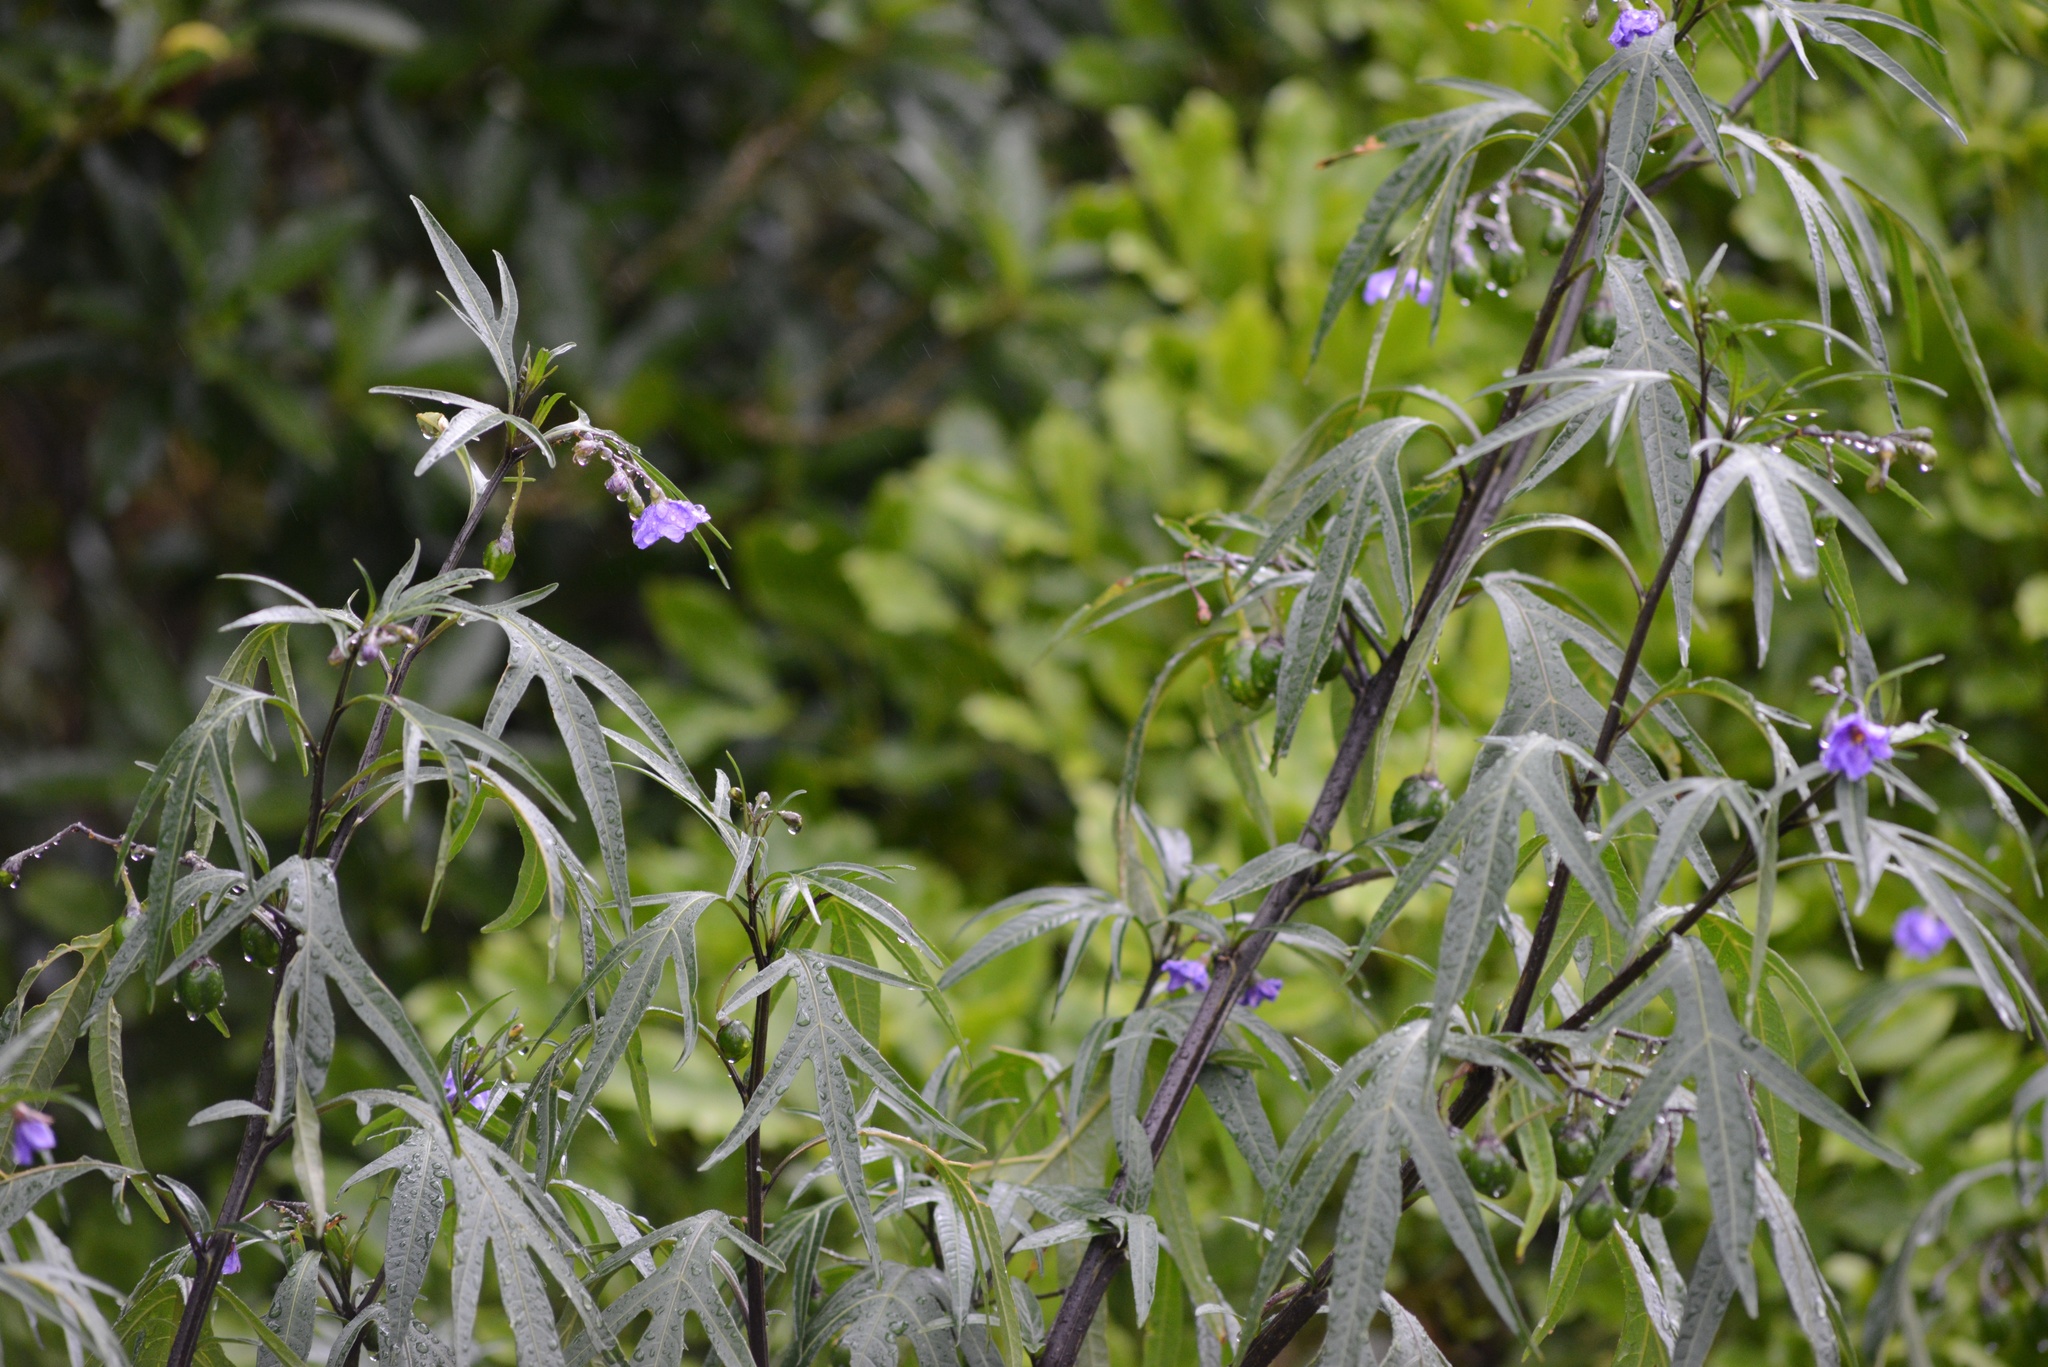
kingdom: Plantae
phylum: Tracheophyta
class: Magnoliopsida
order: Solanales
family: Solanaceae
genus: Solanum
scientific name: Solanum laciniatum
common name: Kangaroo-apple
